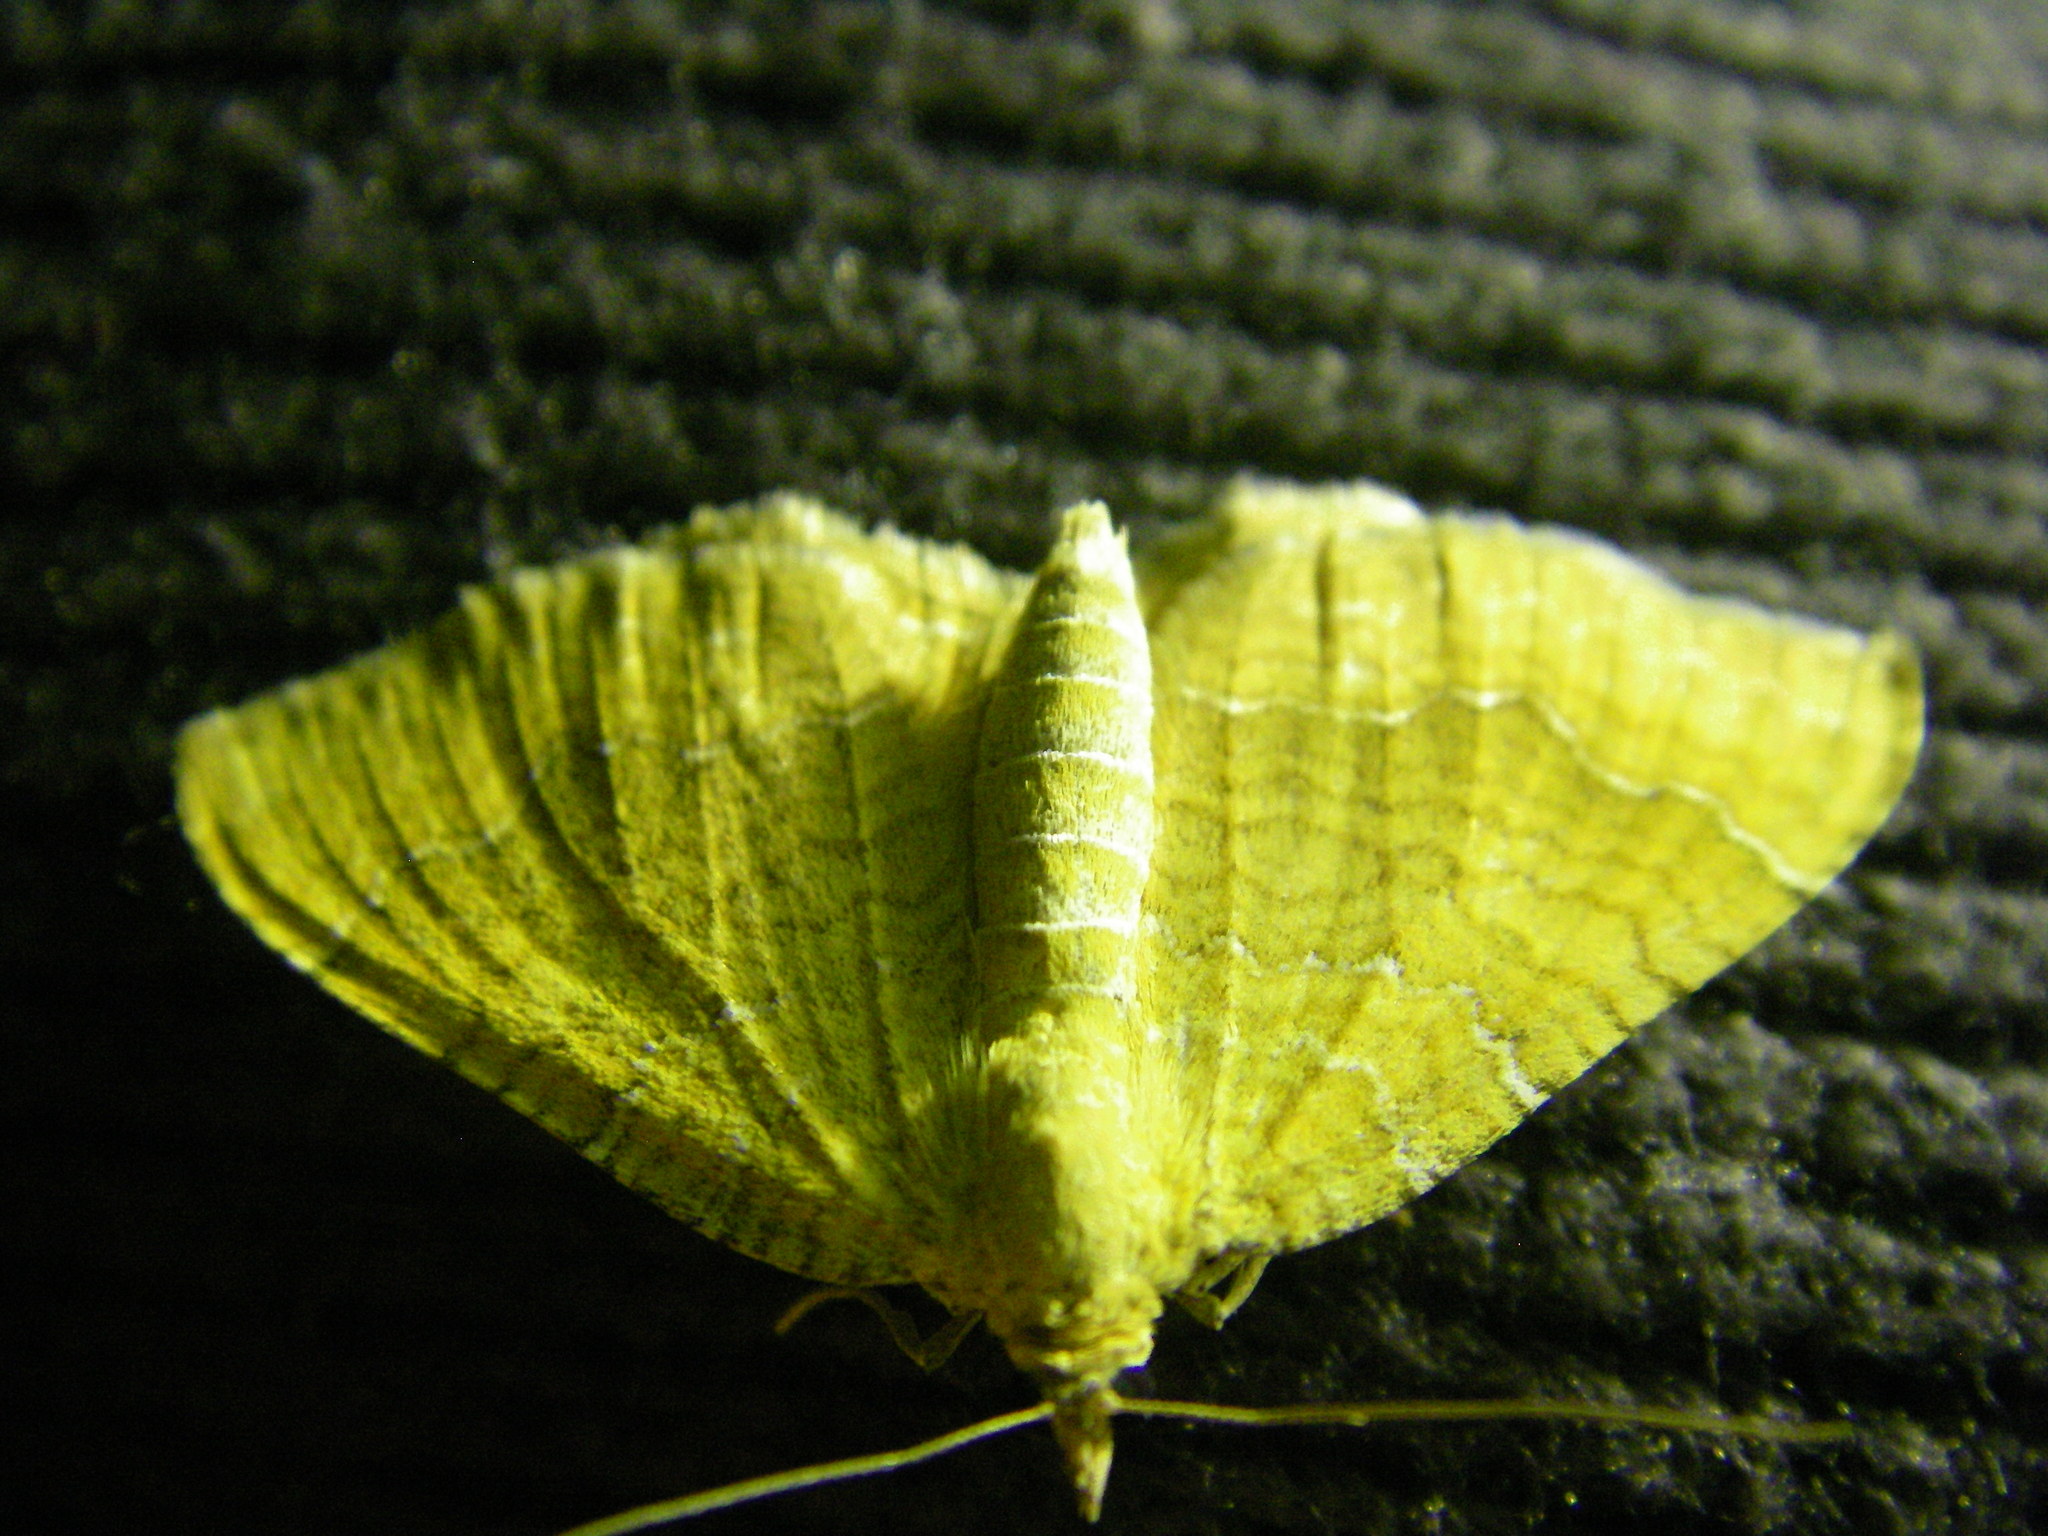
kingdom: Animalia
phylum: Arthropoda
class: Insecta
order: Lepidoptera
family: Geometridae
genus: Camptogramma
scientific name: Camptogramma bilineata
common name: Yellow shell
